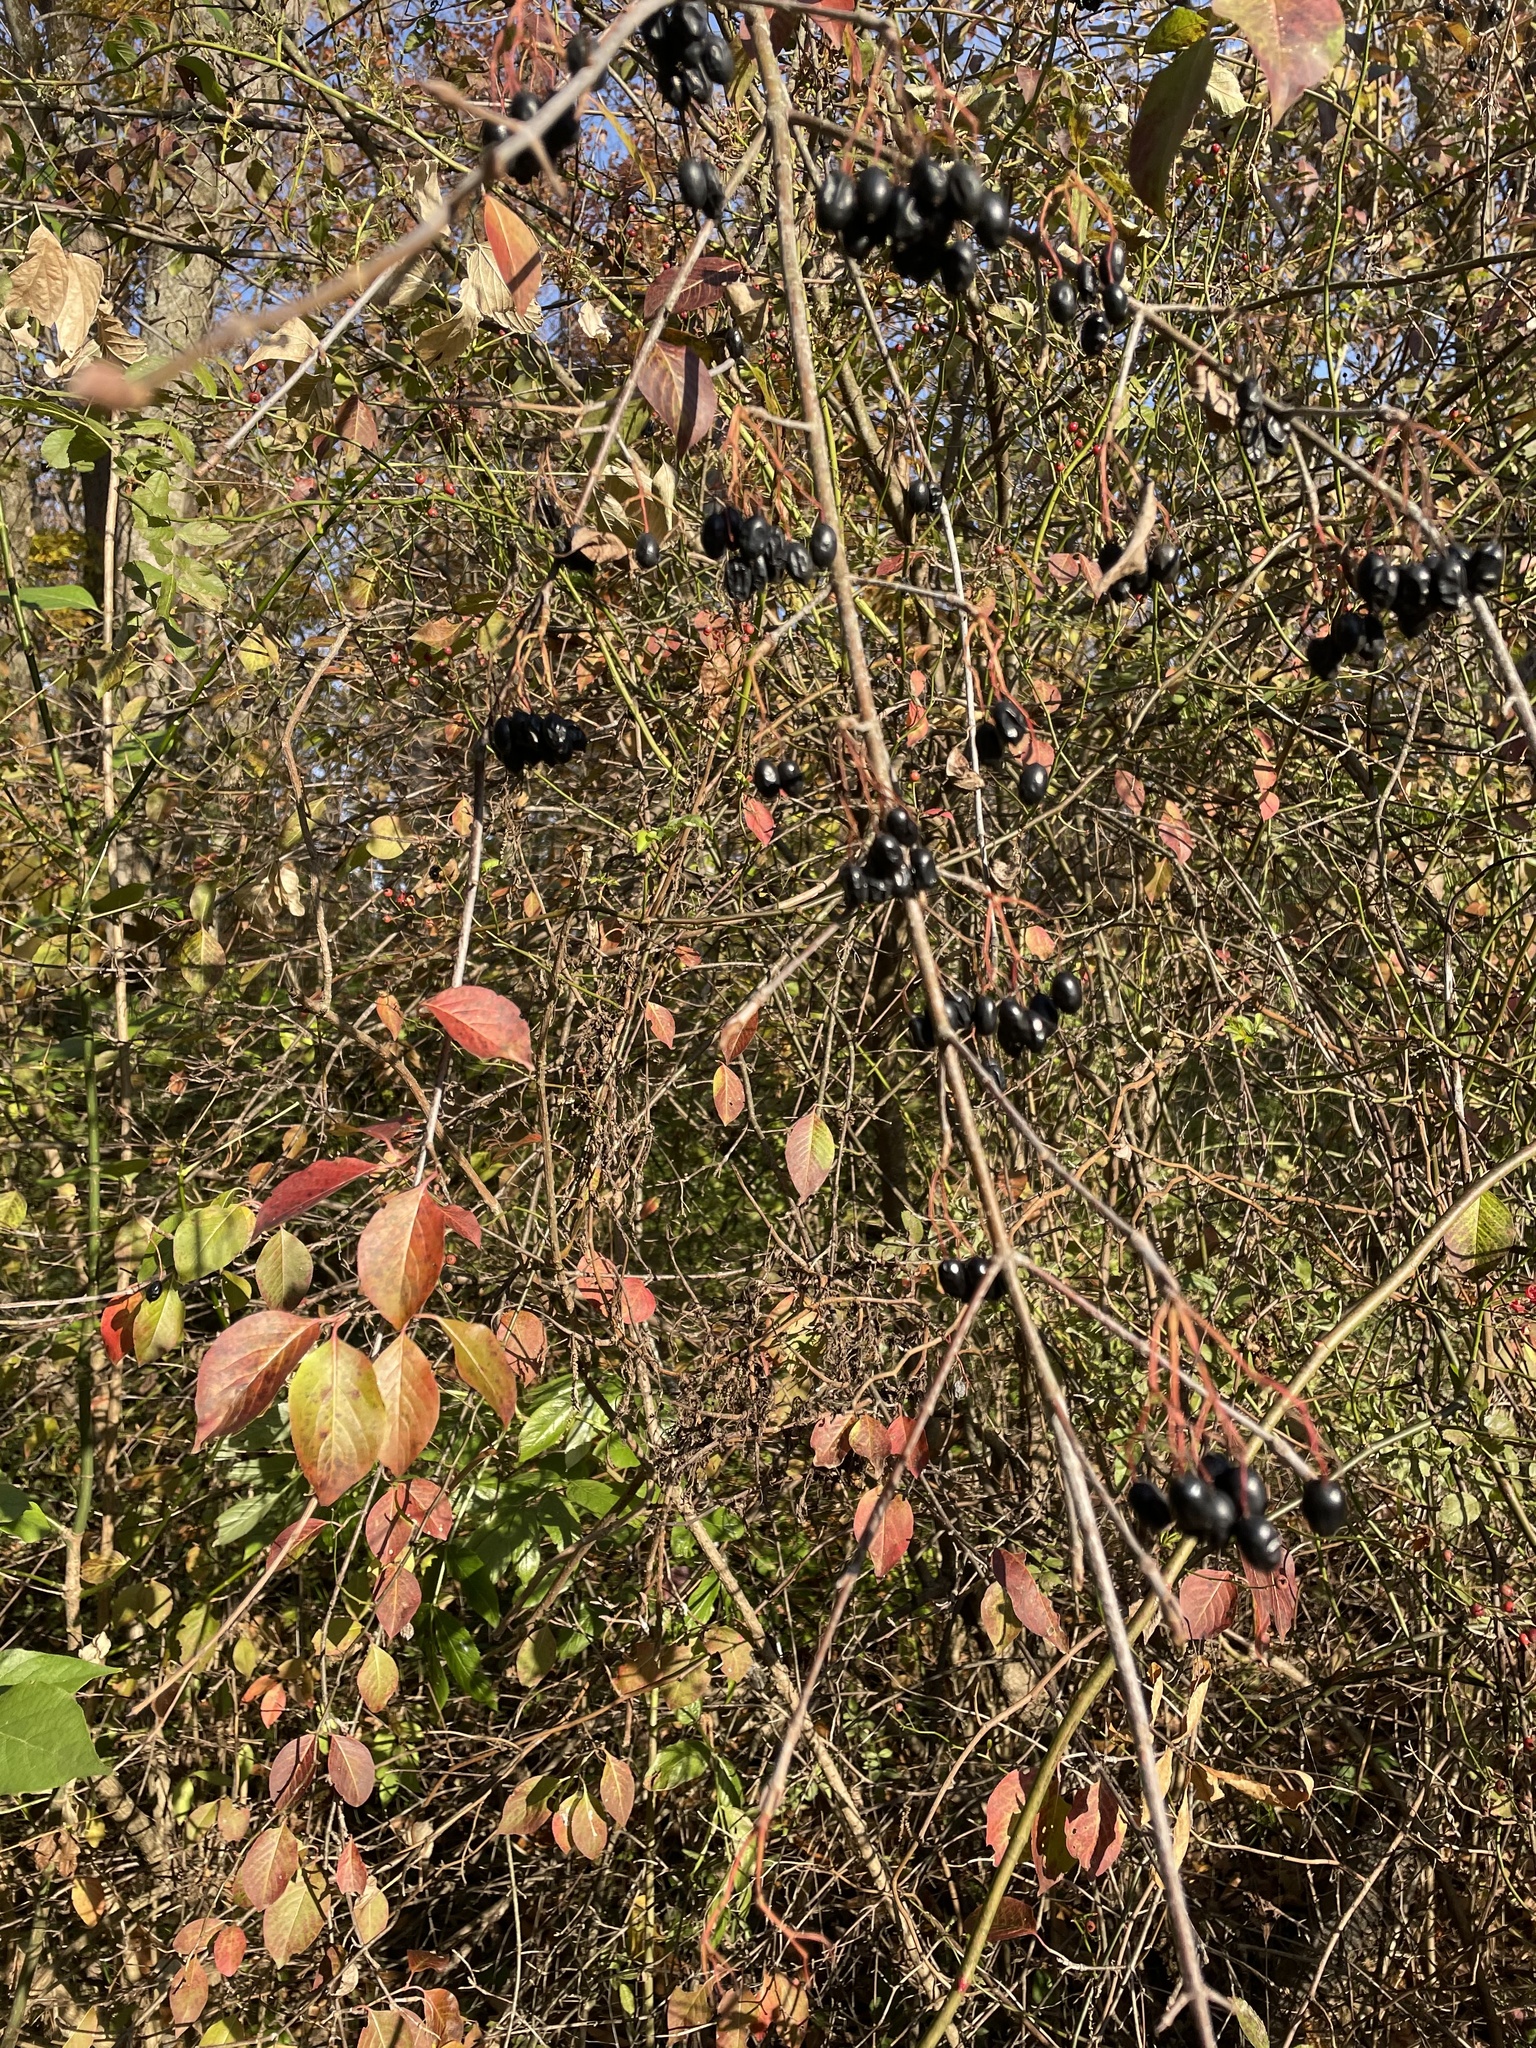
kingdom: Plantae
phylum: Tracheophyta
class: Magnoliopsida
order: Dipsacales
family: Viburnaceae
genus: Viburnum
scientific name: Viburnum prunifolium
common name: Black haw
